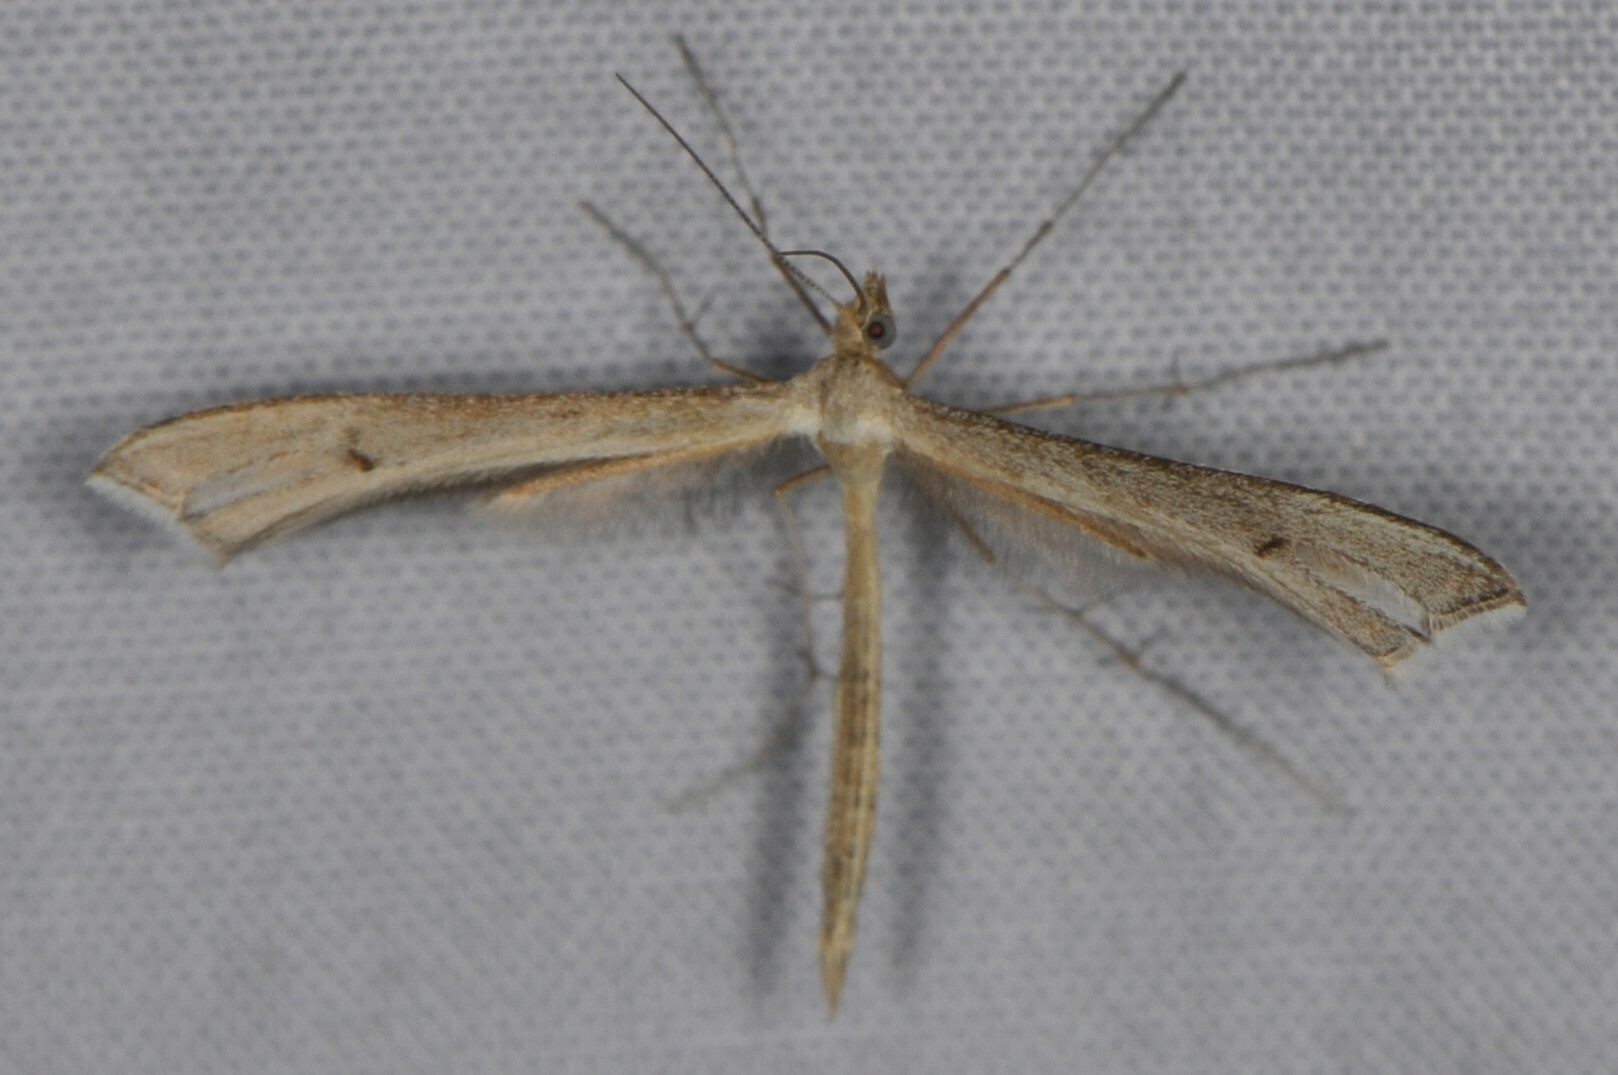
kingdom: Animalia
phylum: Arthropoda
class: Insecta
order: Lepidoptera
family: Pterophoridae
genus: Paraplatyptilia
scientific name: Paraplatyptilia
